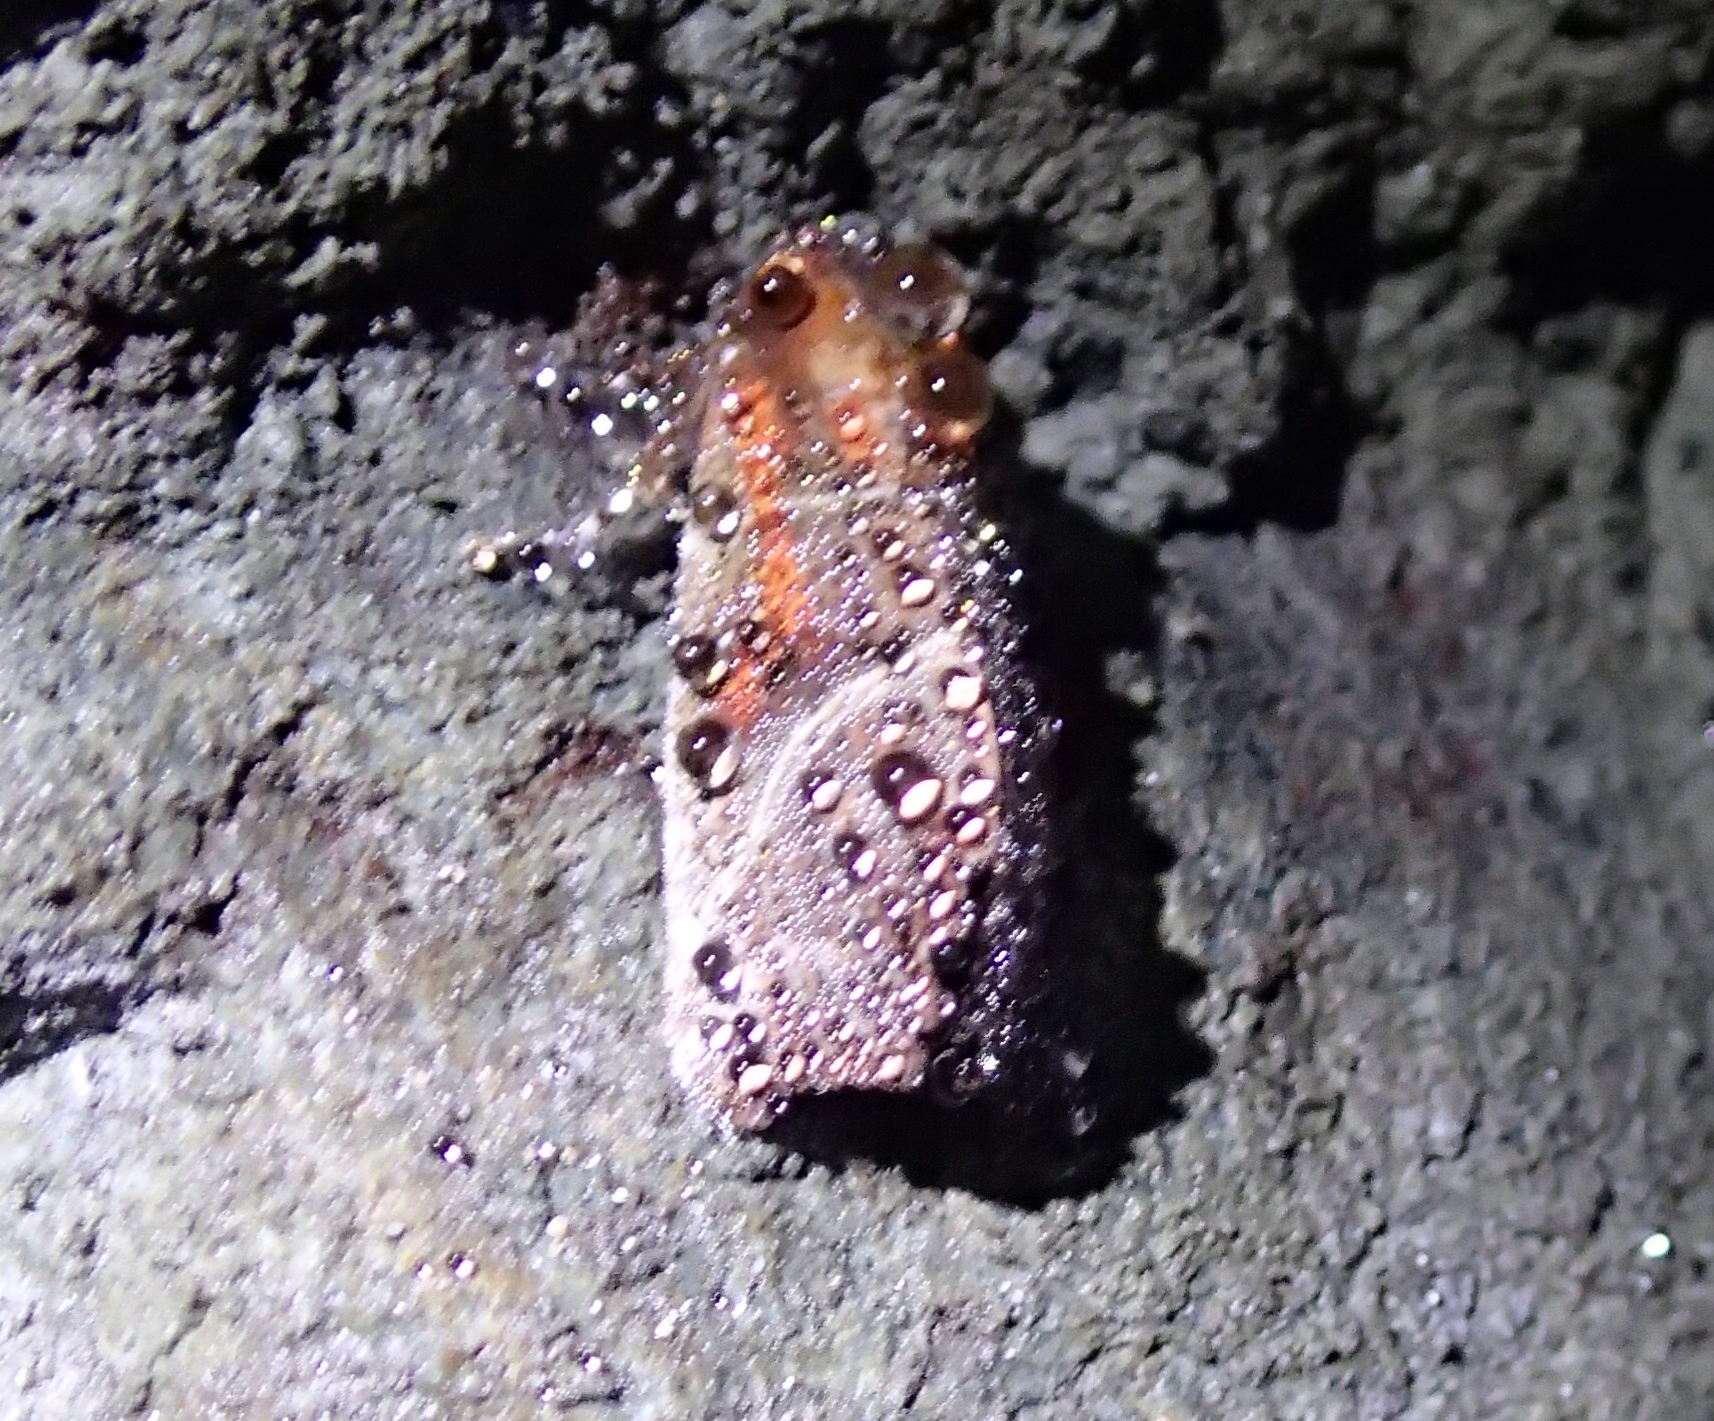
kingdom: Animalia
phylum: Arthropoda
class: Insecta
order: Lepidoptera
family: Erebidae
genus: Scoliopteryx
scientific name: Scoliopteryx libatrix
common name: Herald
